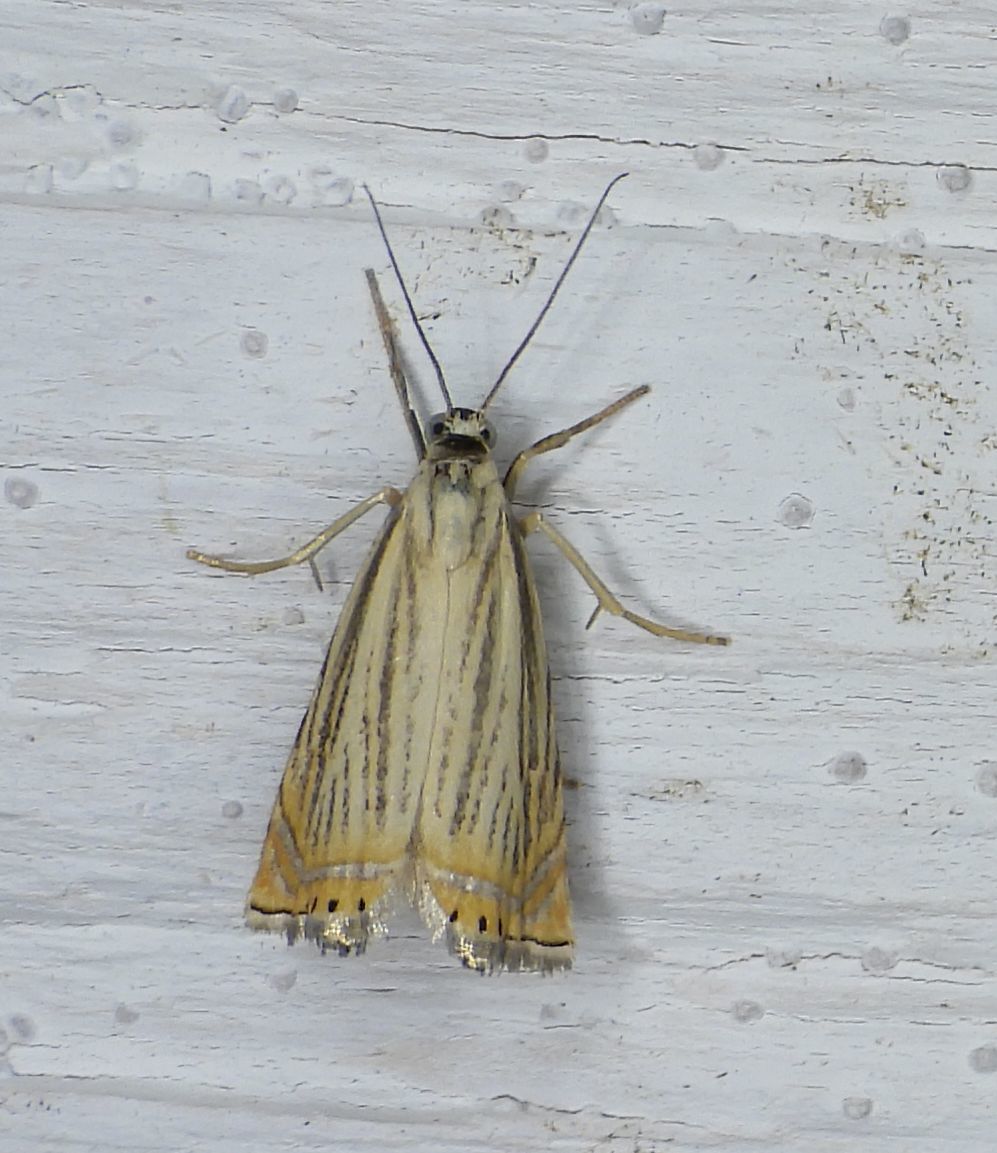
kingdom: Animalia
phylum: Arthropoda
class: Insecta
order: Lepidoptera
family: Crambidae
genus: Chrysoteuchia
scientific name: Chrysoteuchia topiarius
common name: Topiary grass-veneer
